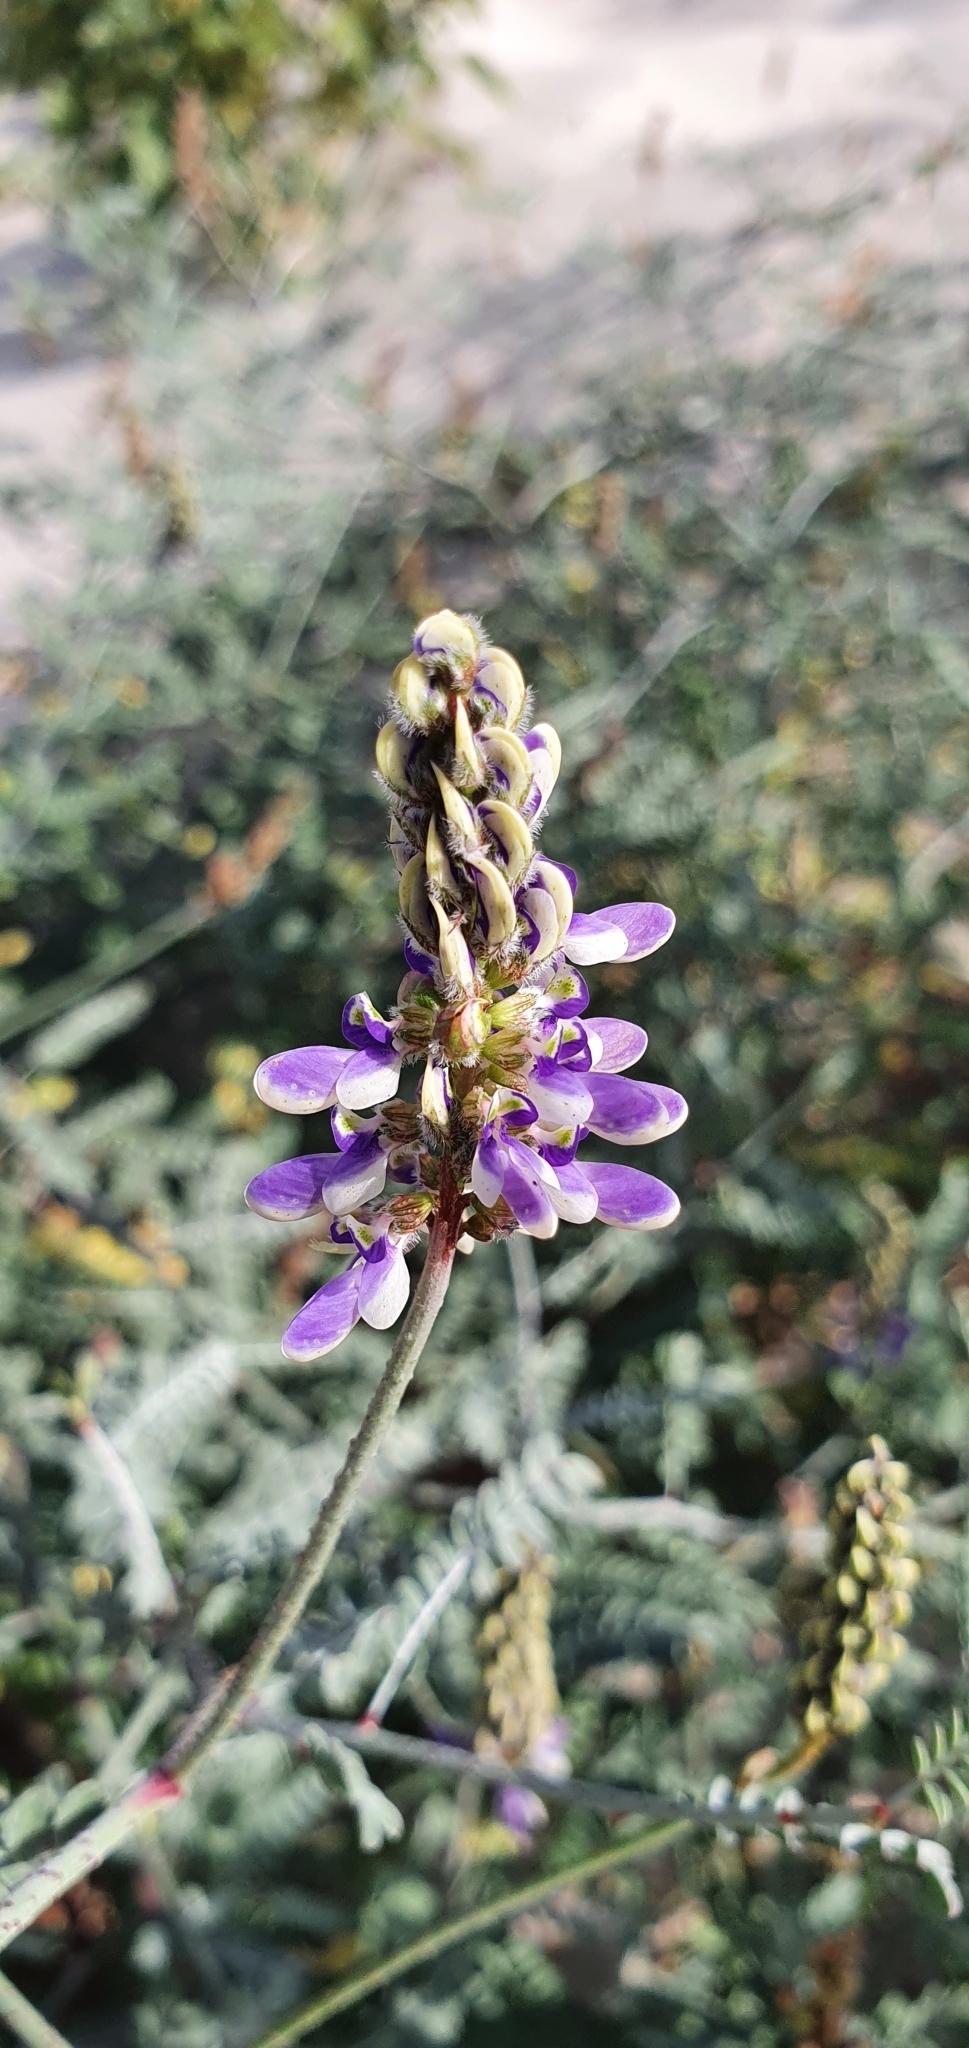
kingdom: Plantae
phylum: Tracheophyta
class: Magnoliopsida
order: Fabales
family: Fabaceae
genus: Marina
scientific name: Marina maritima
